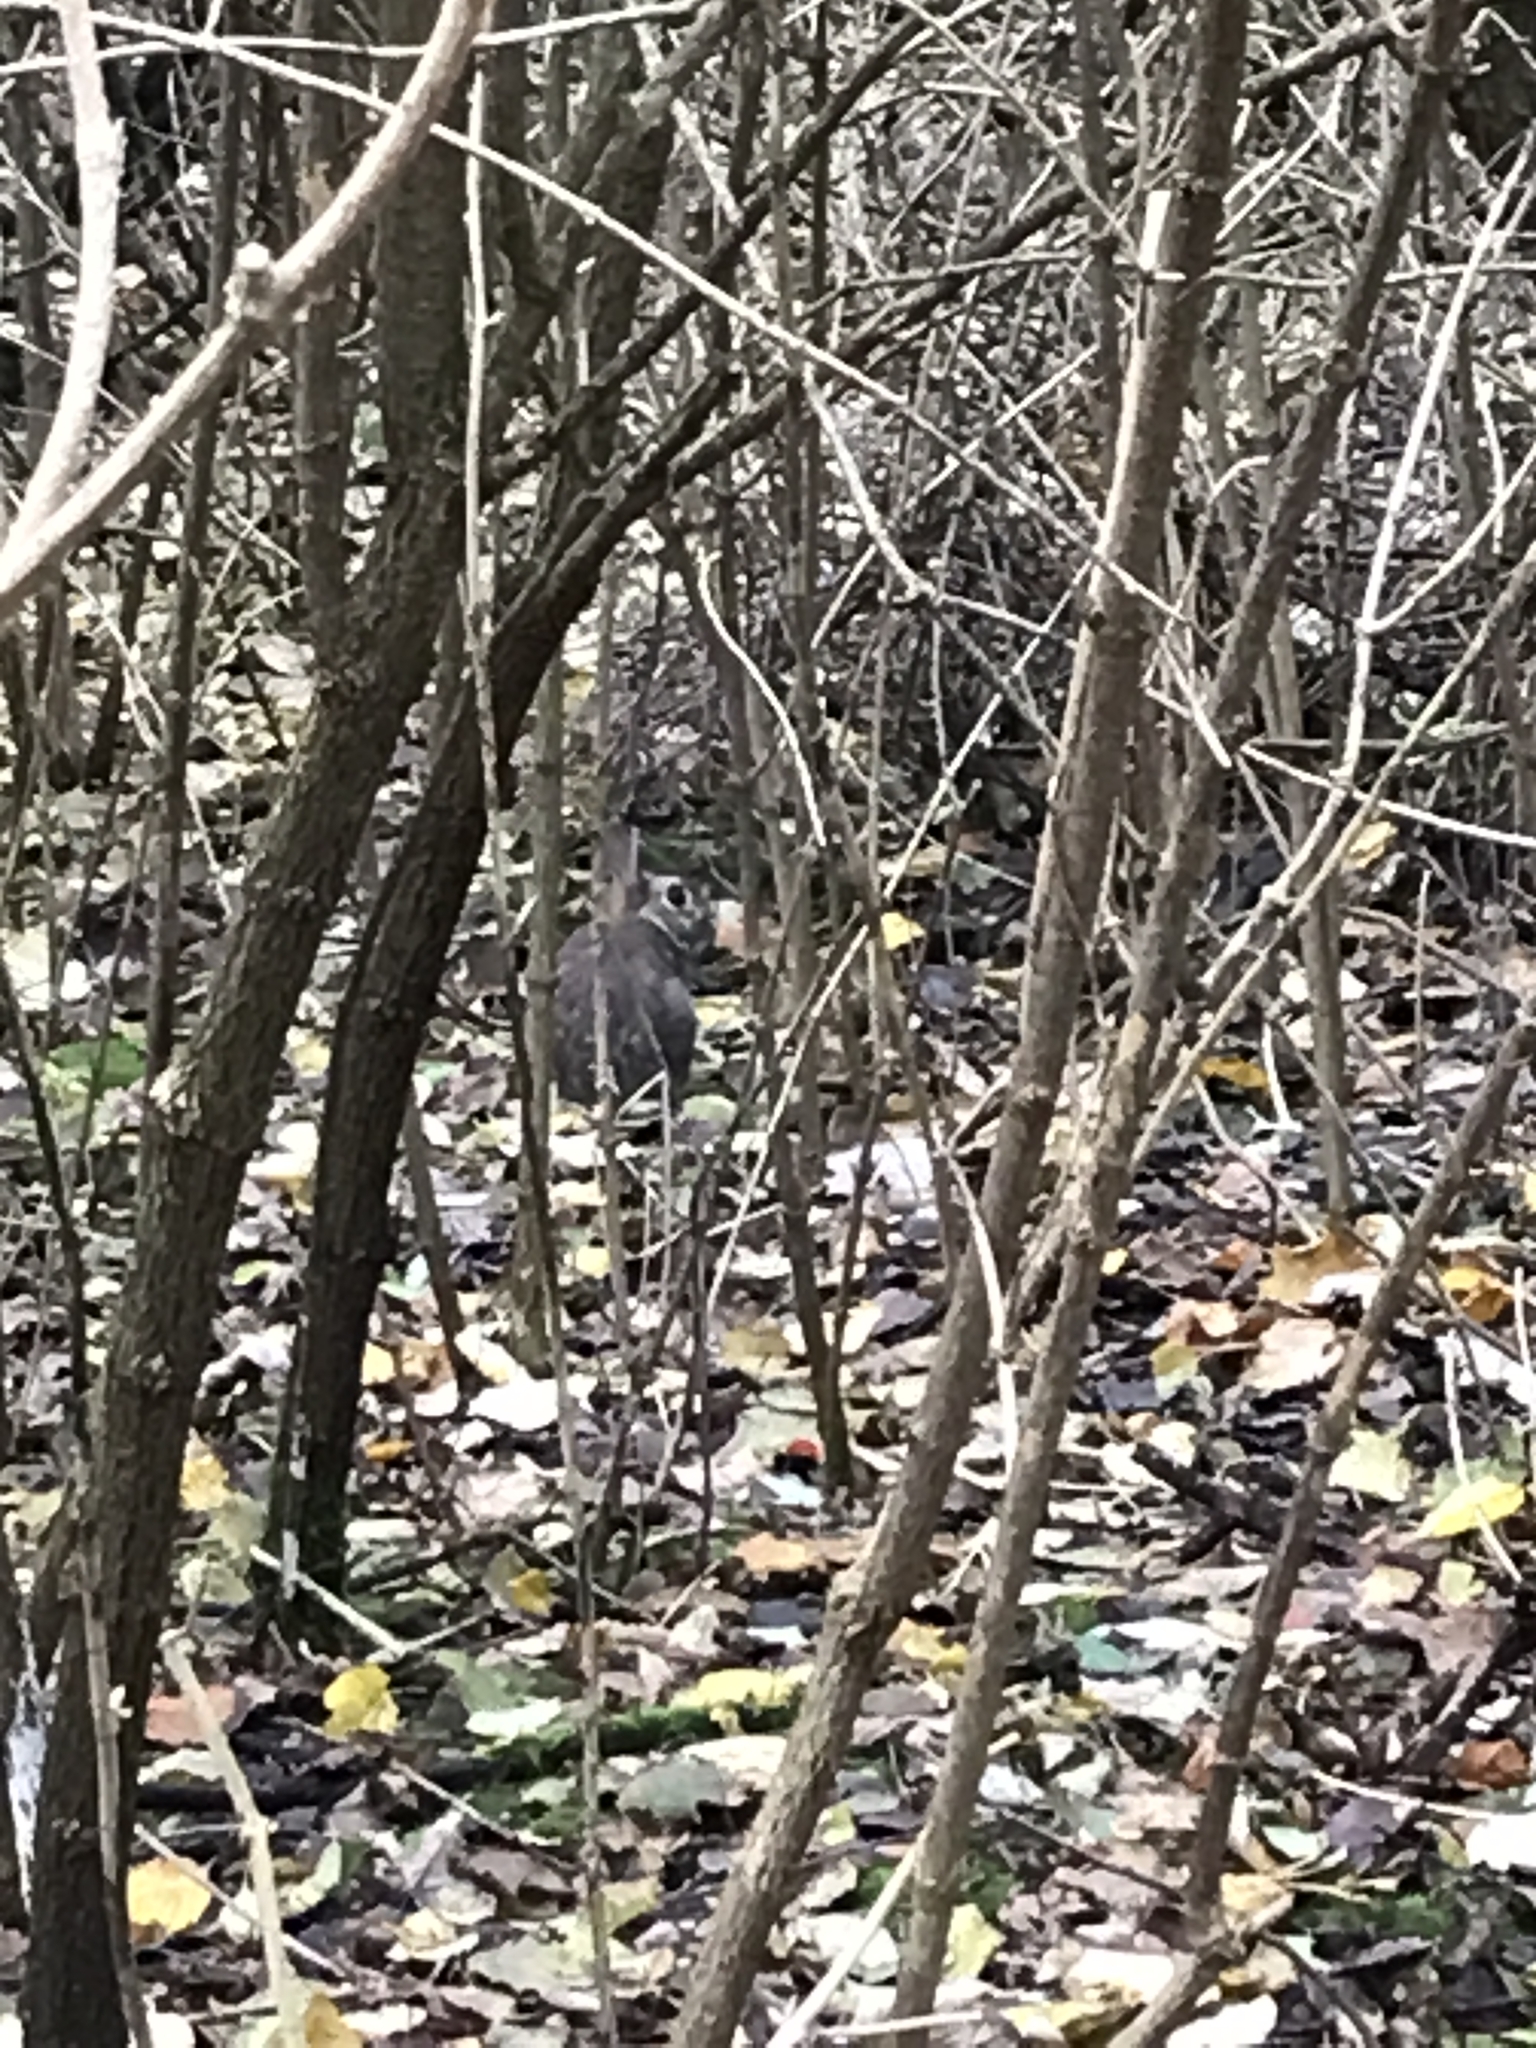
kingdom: Animalia
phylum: Chordata
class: Mammalia
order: Lagomorpha
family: Leporidae
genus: Oryctolagus
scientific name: Oryctolagus cuniculus
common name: European rabbit
